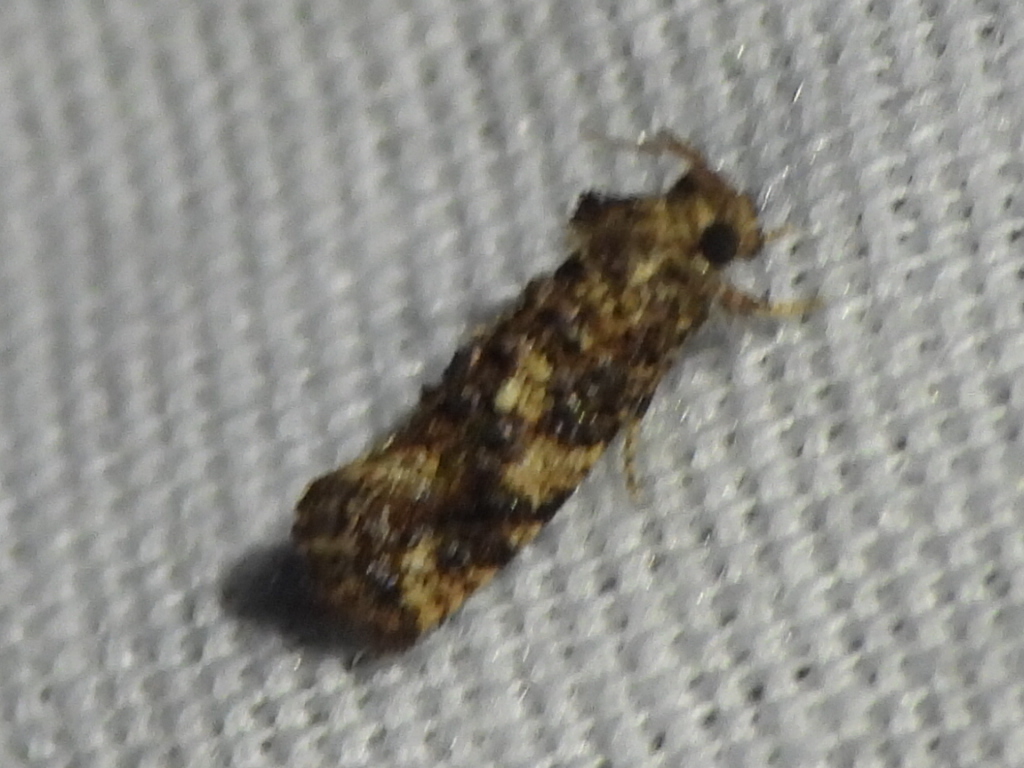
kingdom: Animalia
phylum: Arthropoda
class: Insecta
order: Lepidoptera
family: Tineidae
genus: Acrolophus
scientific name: Acrolophus cressoni
